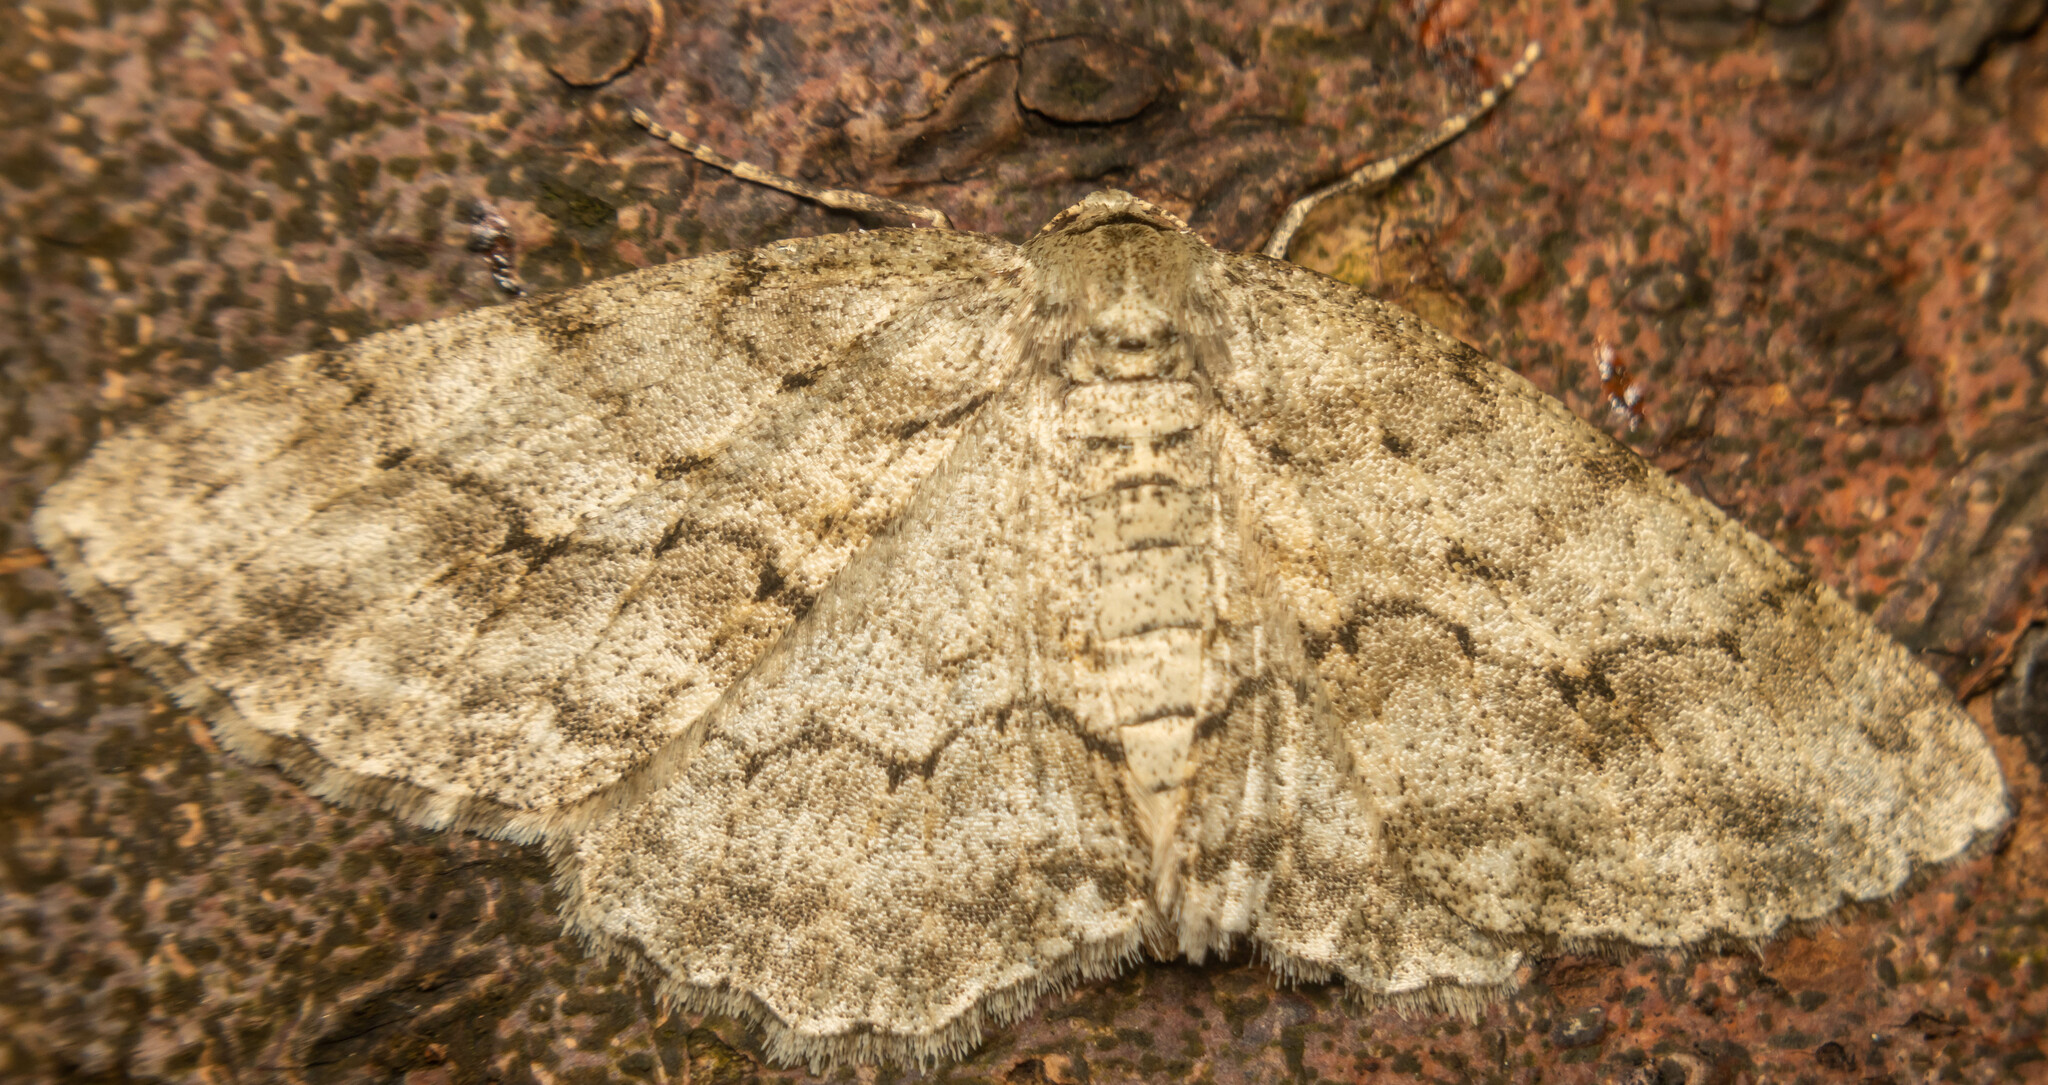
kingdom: Animalia
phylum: Arthropoda
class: Insecta
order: Lepidoptera
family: Geometridae
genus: Ectropis
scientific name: Ectropis crepuscularia
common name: Engrailed
